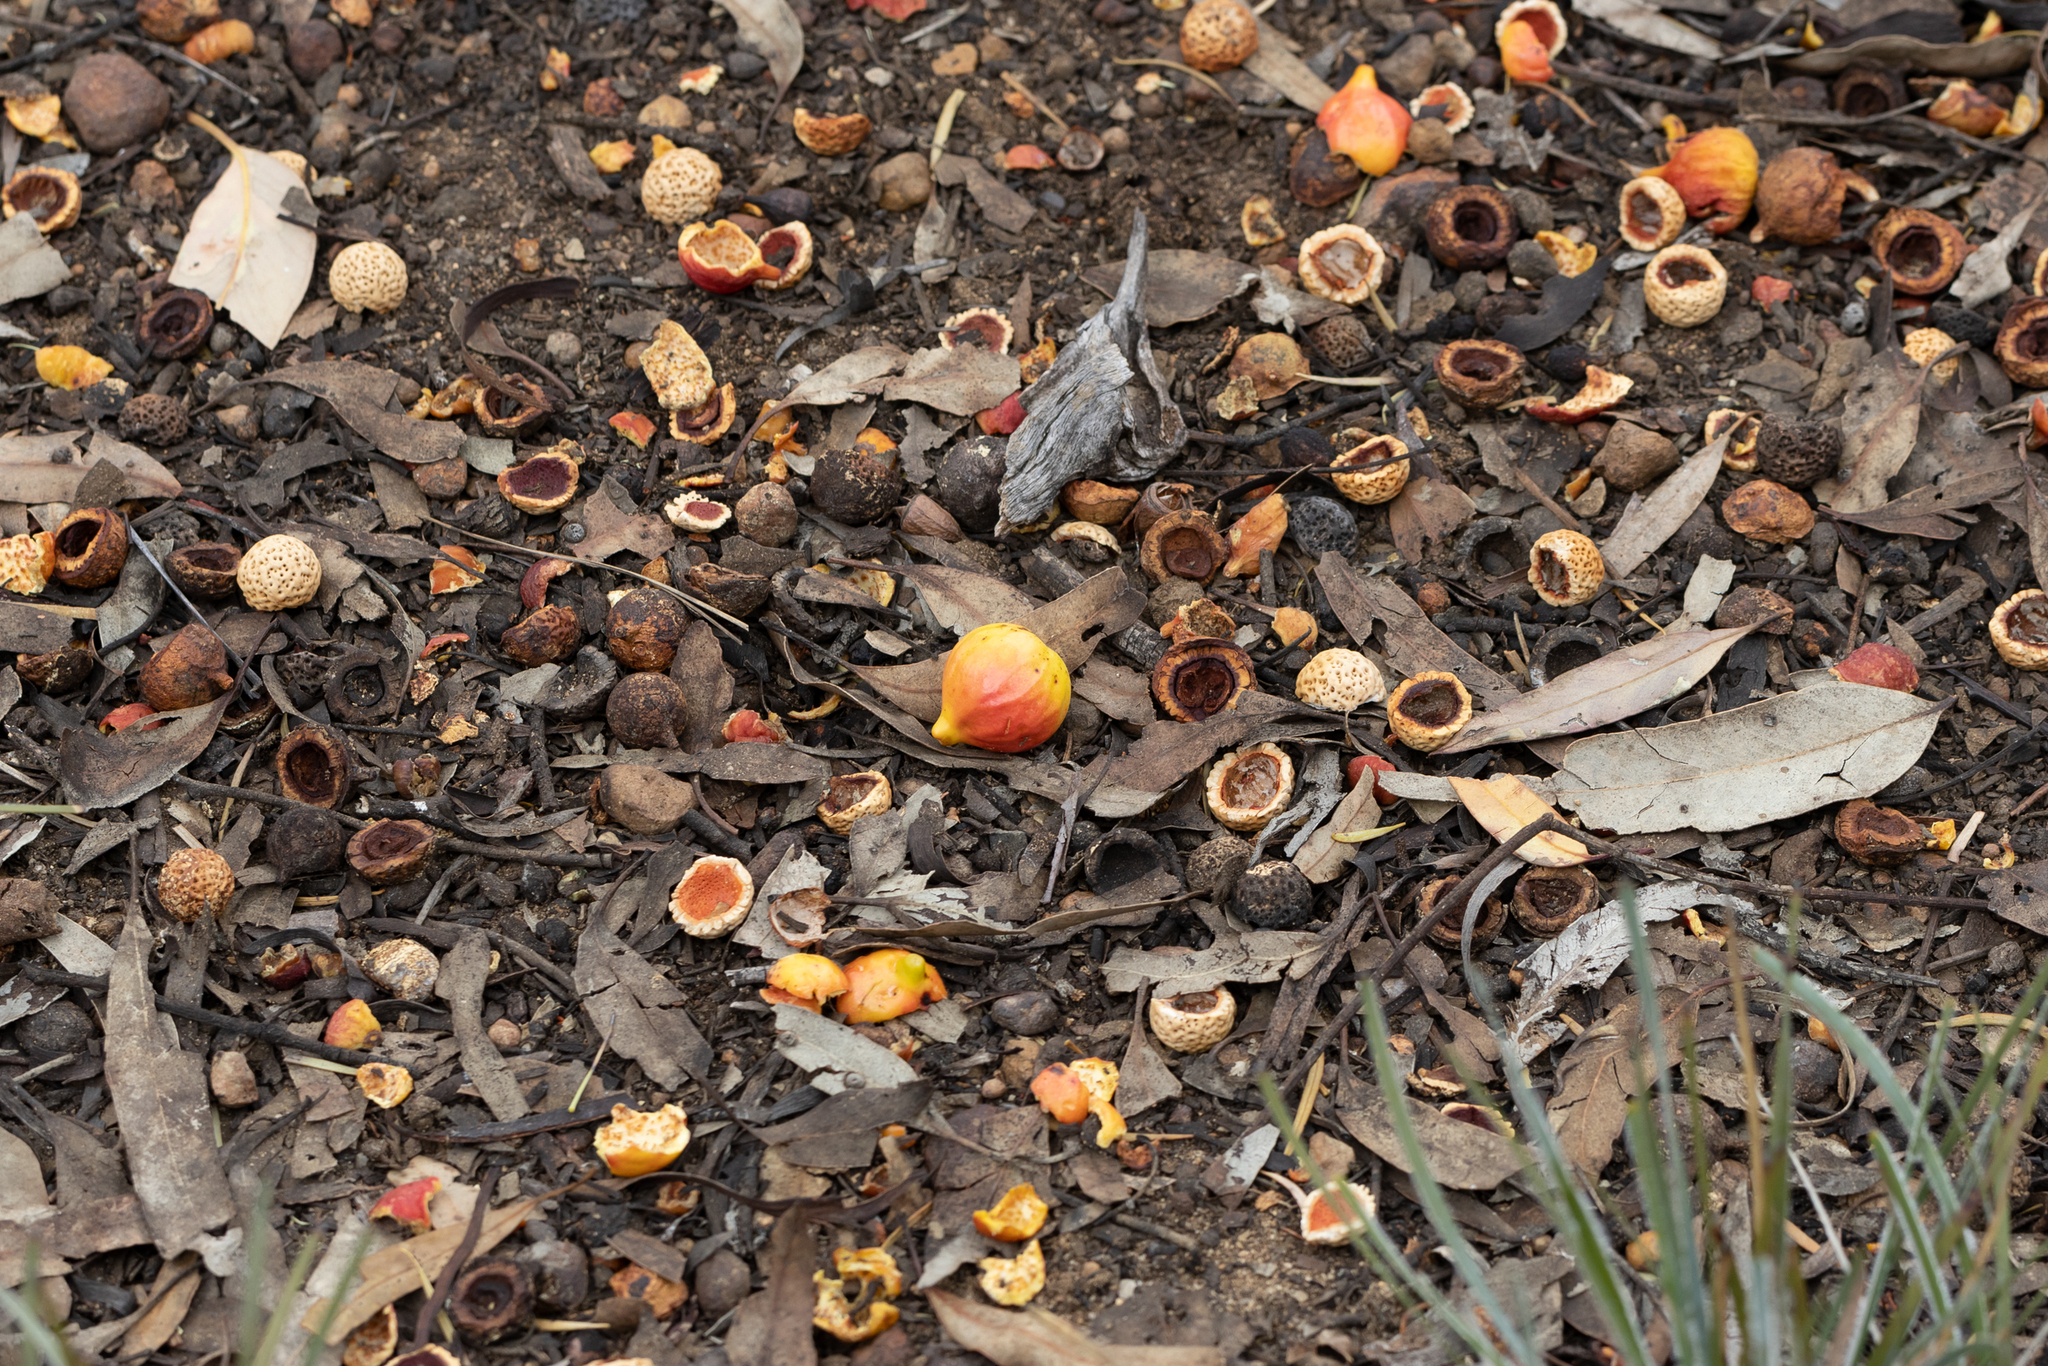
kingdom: Plantae
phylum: Tracheophyta
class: Magnoliopsida
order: Santalales
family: Santalaceae
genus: Santalum
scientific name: Santalum murrayanum
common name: Bitter quandong
